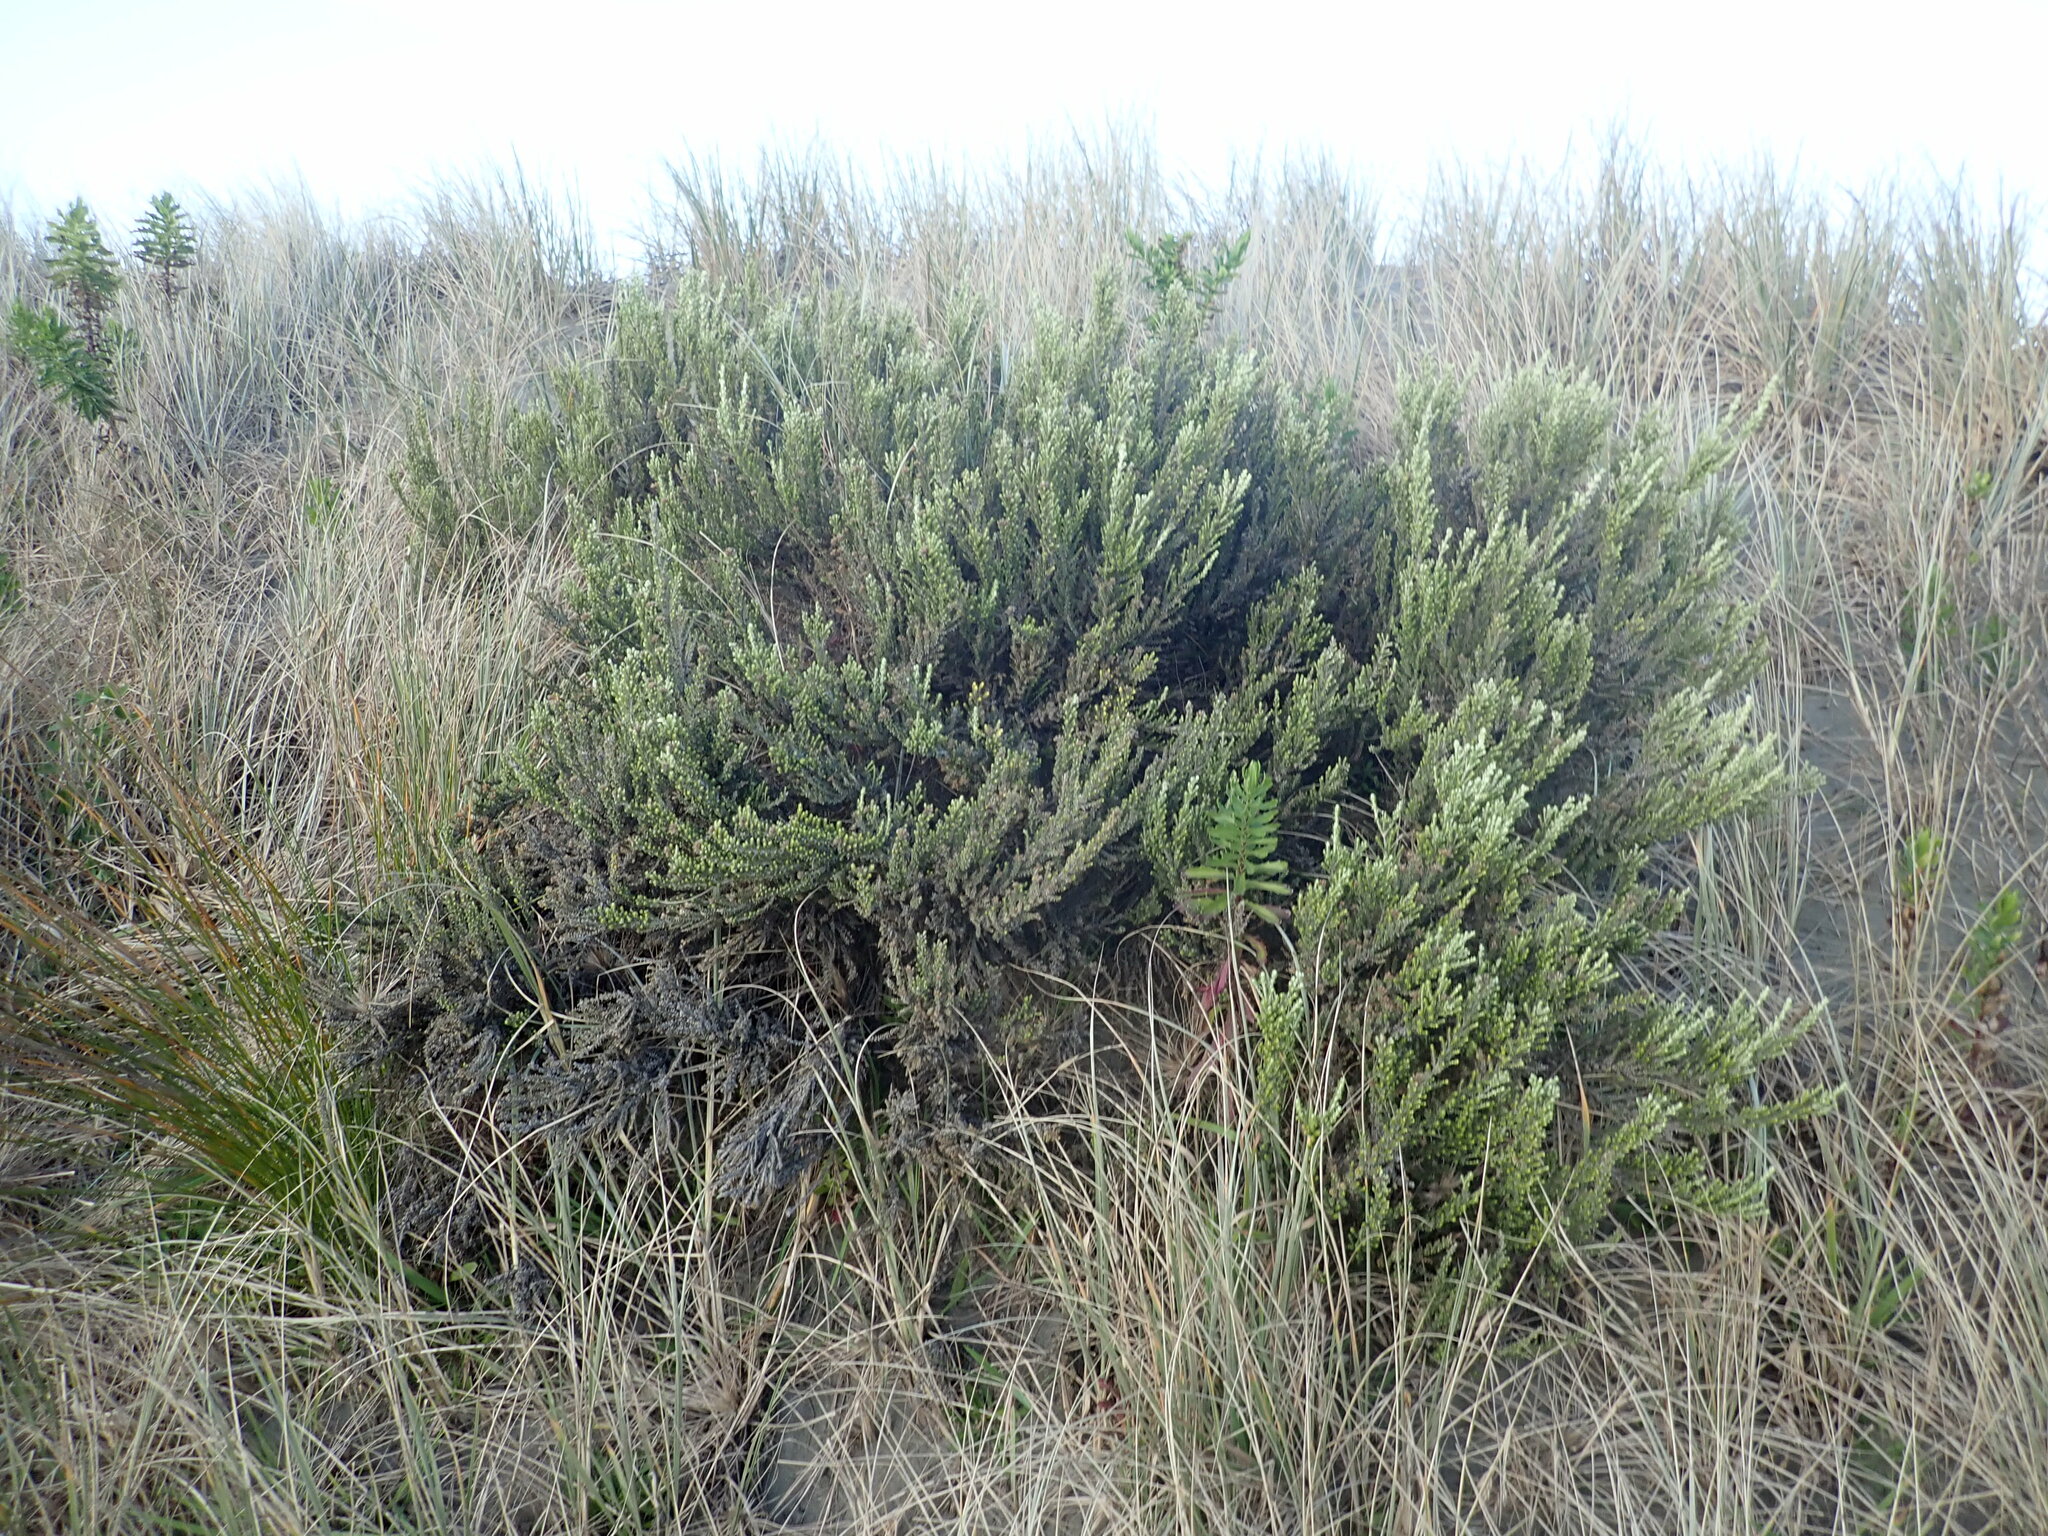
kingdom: Plantae
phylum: Tracheophyta
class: Magnoliopsida
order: Asterales
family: Asteraceae
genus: Ozothamnus
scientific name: Ozothamnus leptophyllus
